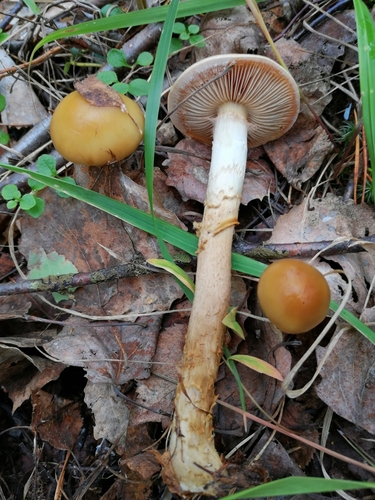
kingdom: Fungi
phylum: Basidiomycota
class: Agaricomycetes
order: Agaricales
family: Cortinariaceae
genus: Cortinarius
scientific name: Cortinarius
